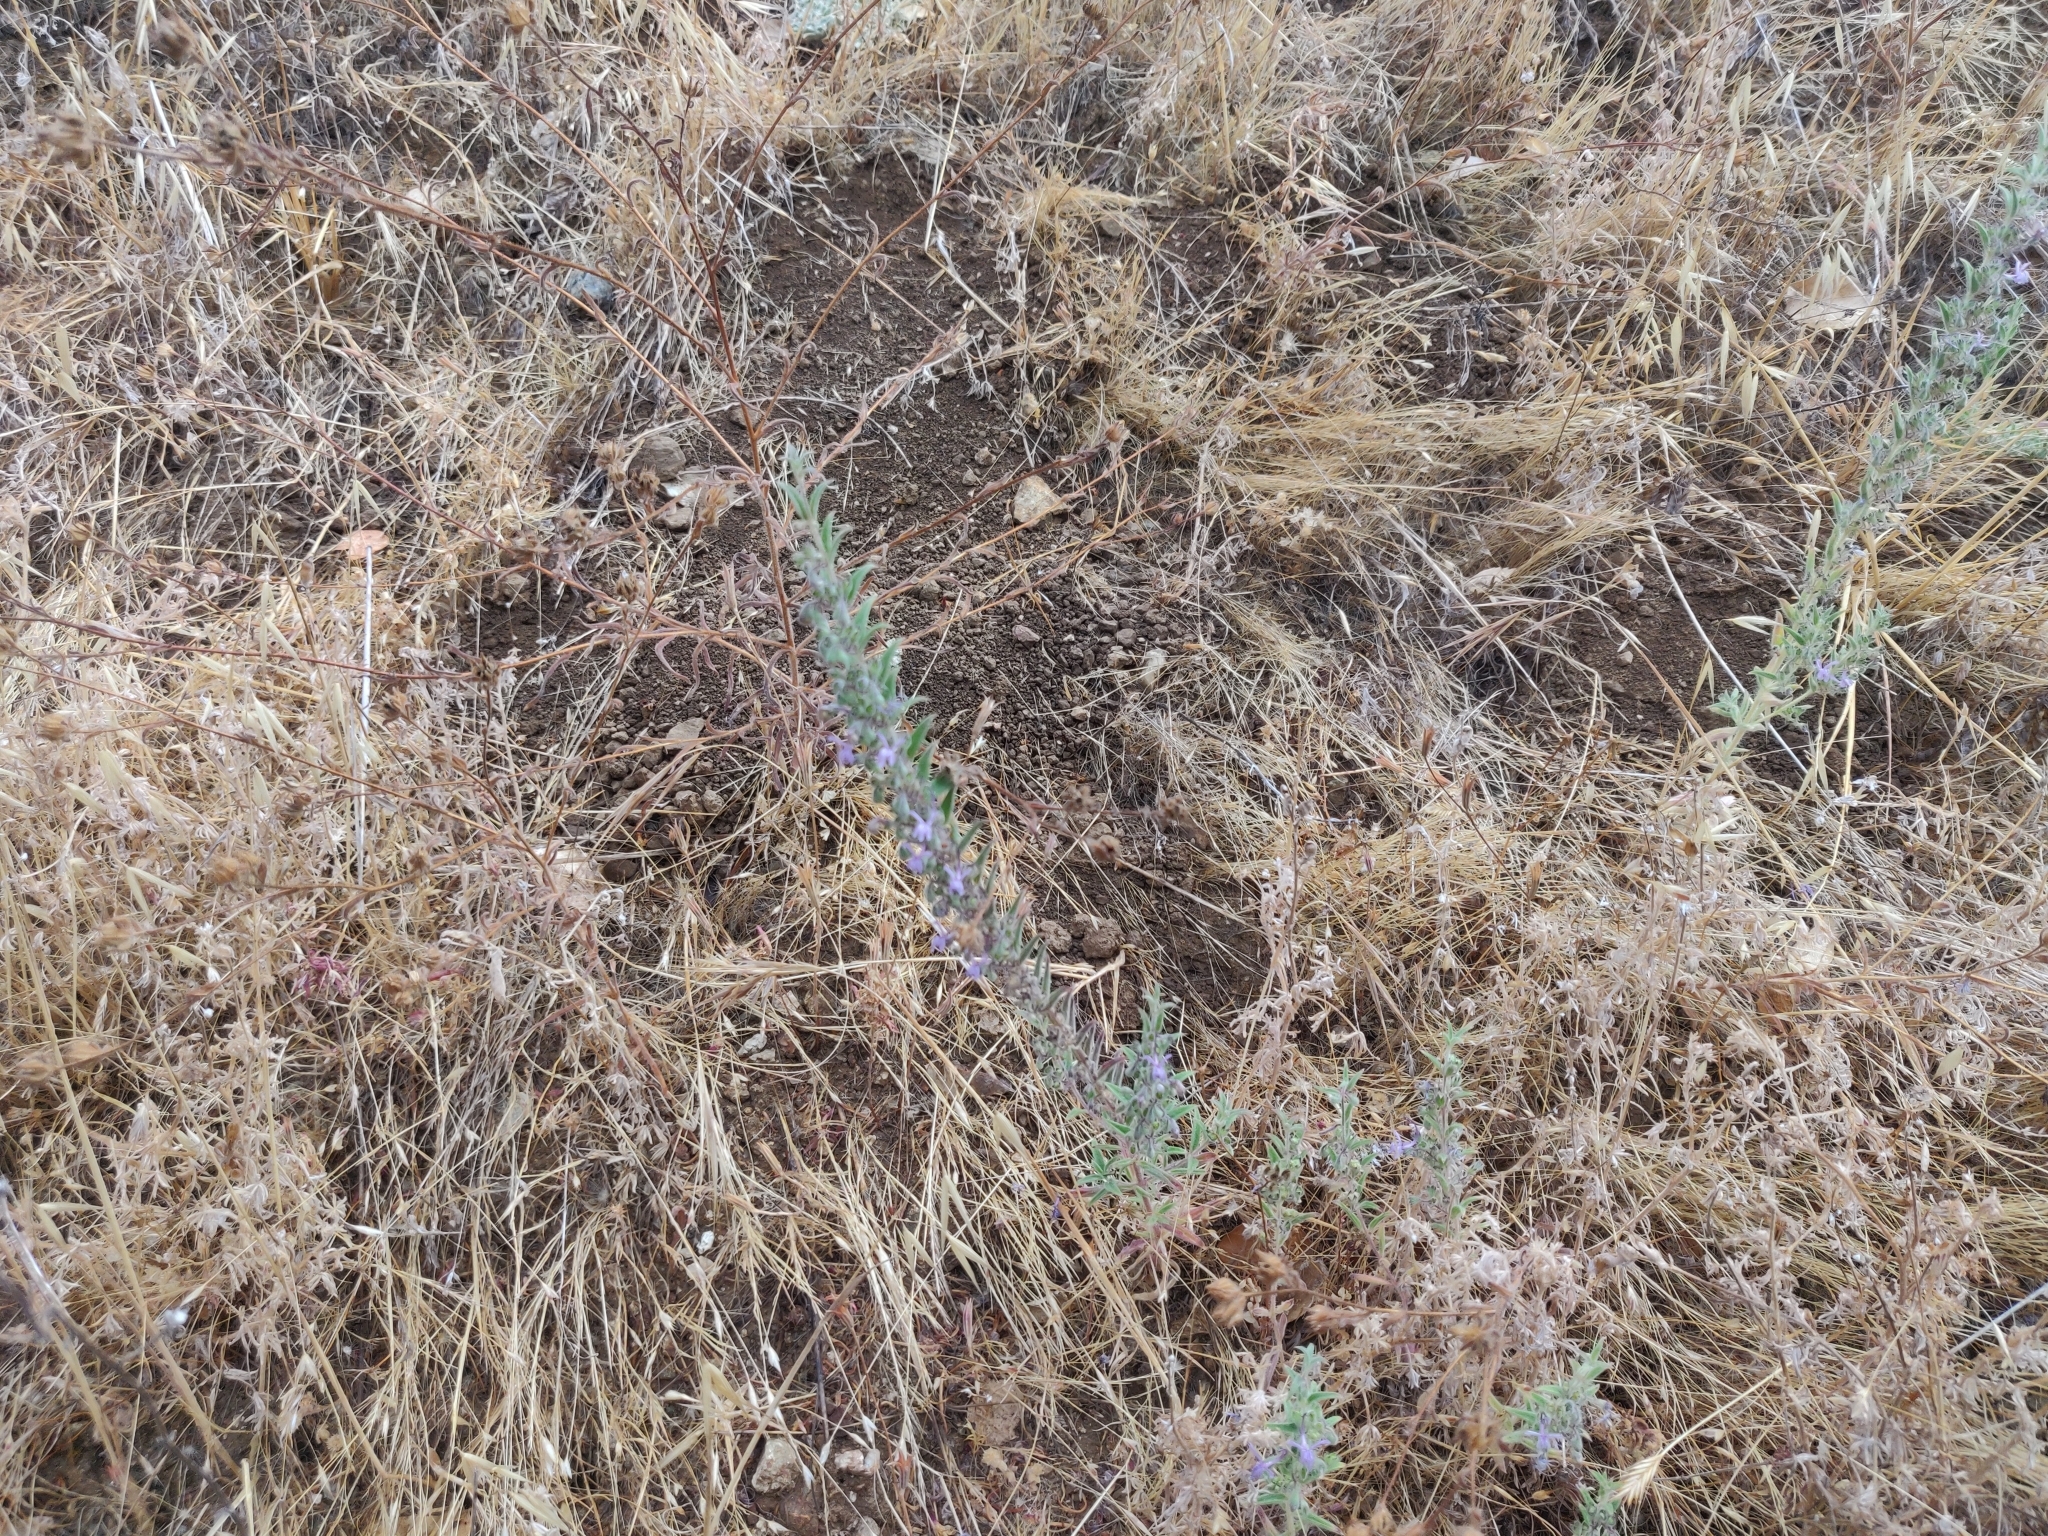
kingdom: Plantae
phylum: Tracheophyta
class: Magnoliopsida
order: Lamiales
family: Lamiaceae
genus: Trichostema
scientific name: Trichostema lanceolatum
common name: Vinegar-weed
